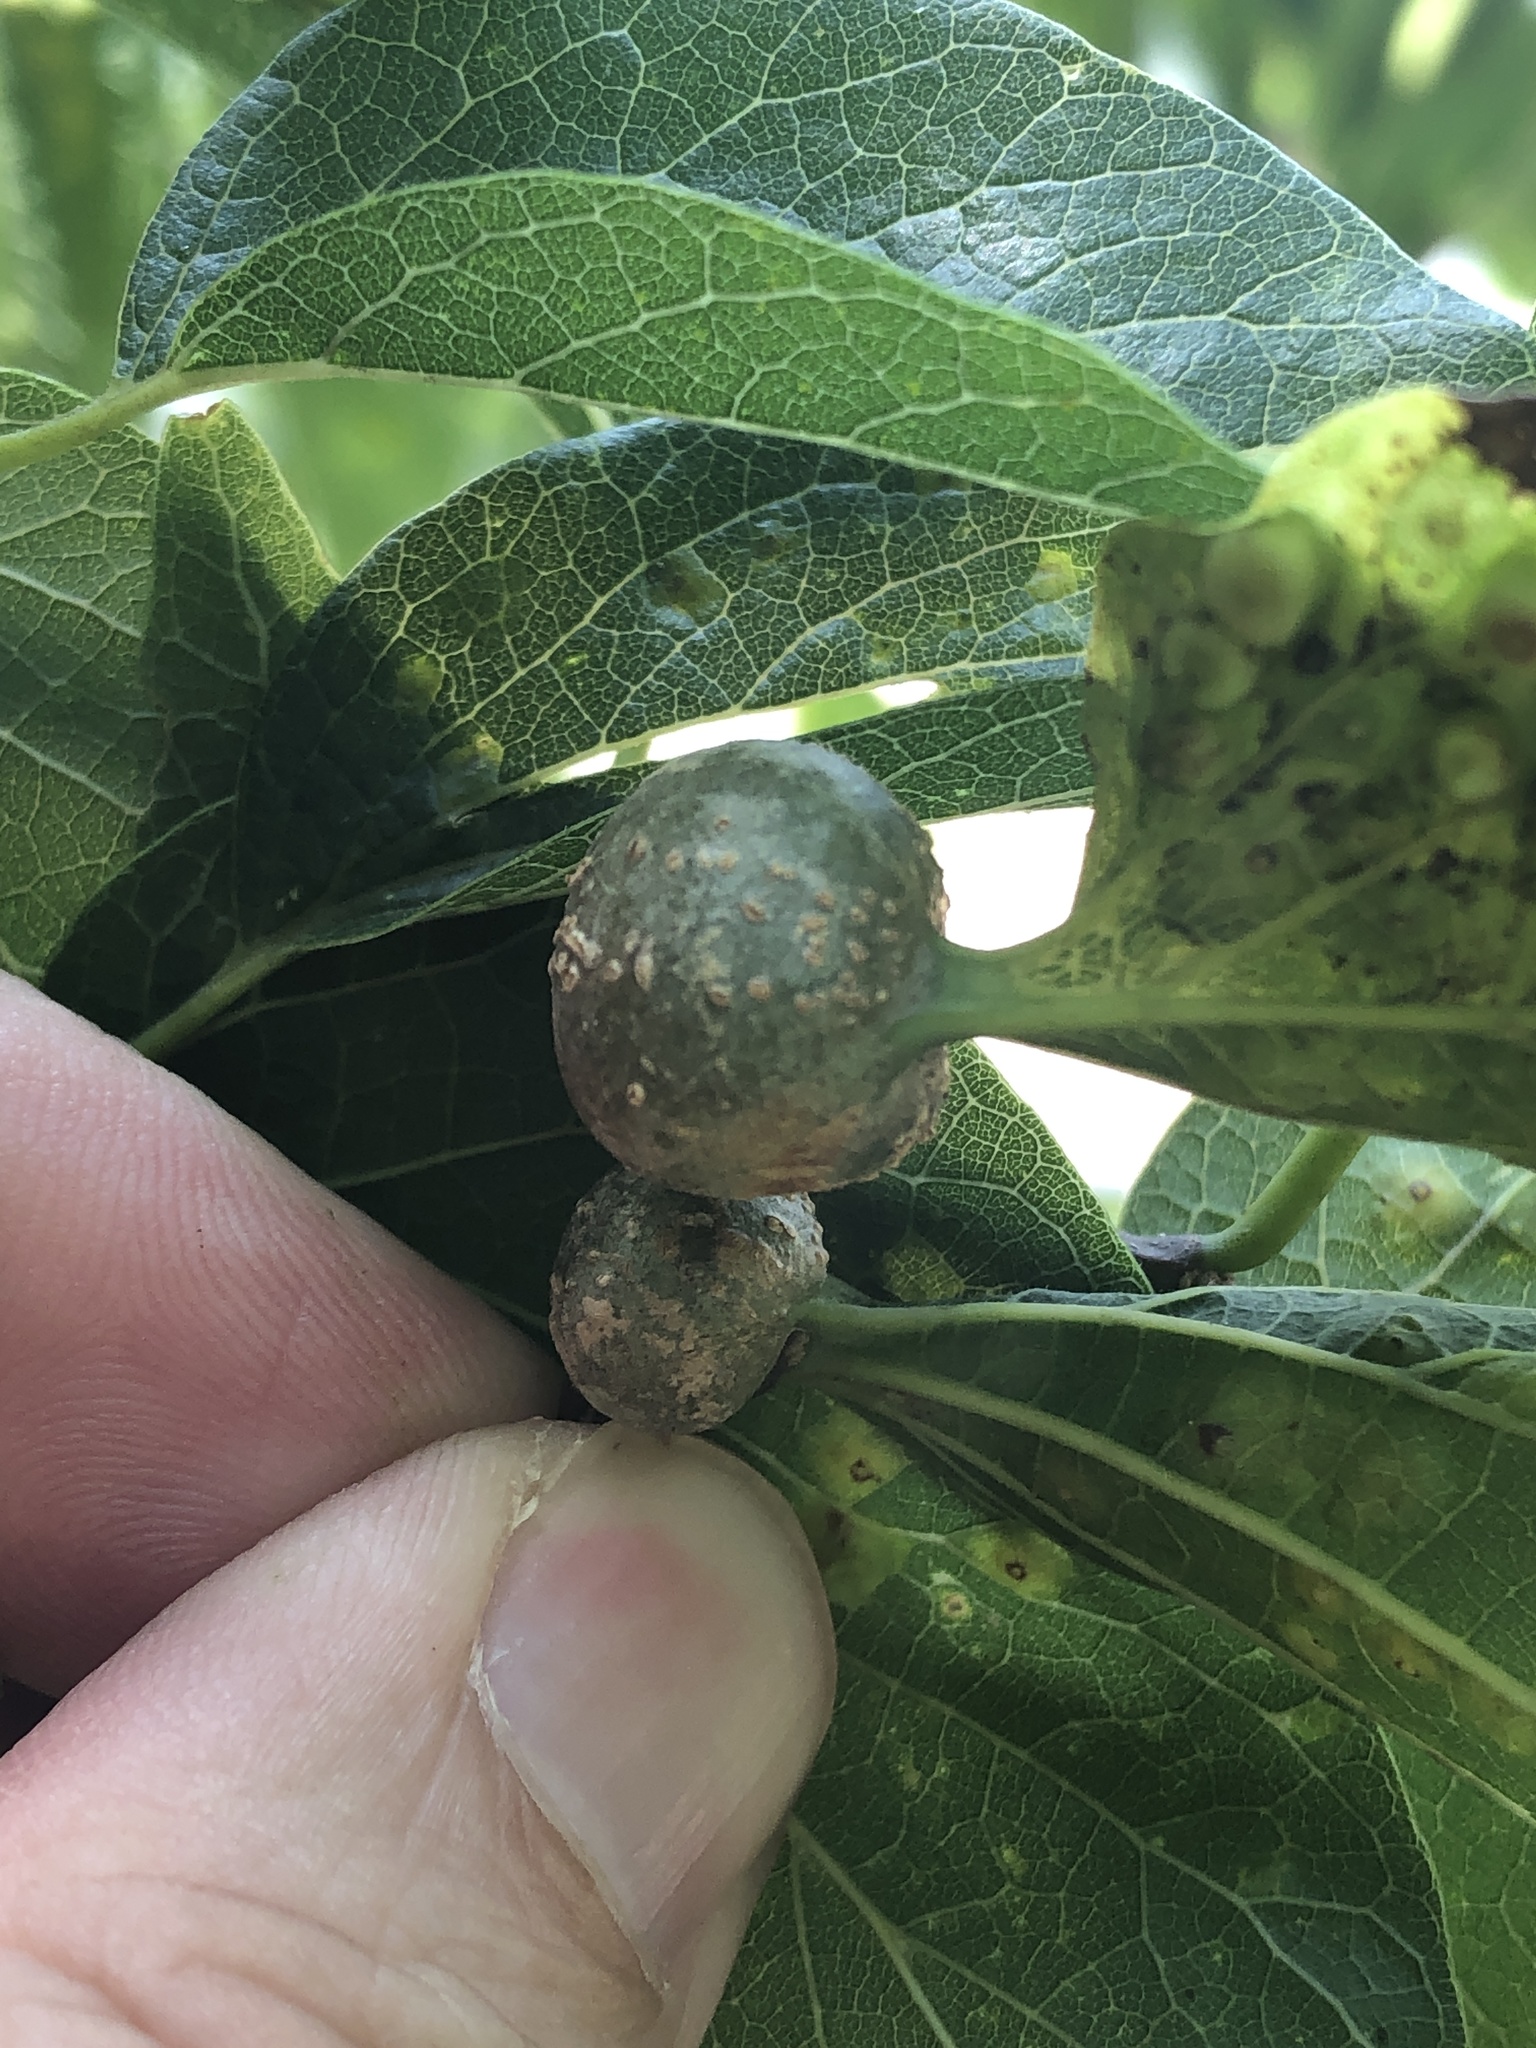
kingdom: Animalia
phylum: Arthropoda
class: Insecta
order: Hemiptera
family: Aphalaridae
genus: Pachypsylla
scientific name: Pachypsylla venusta
